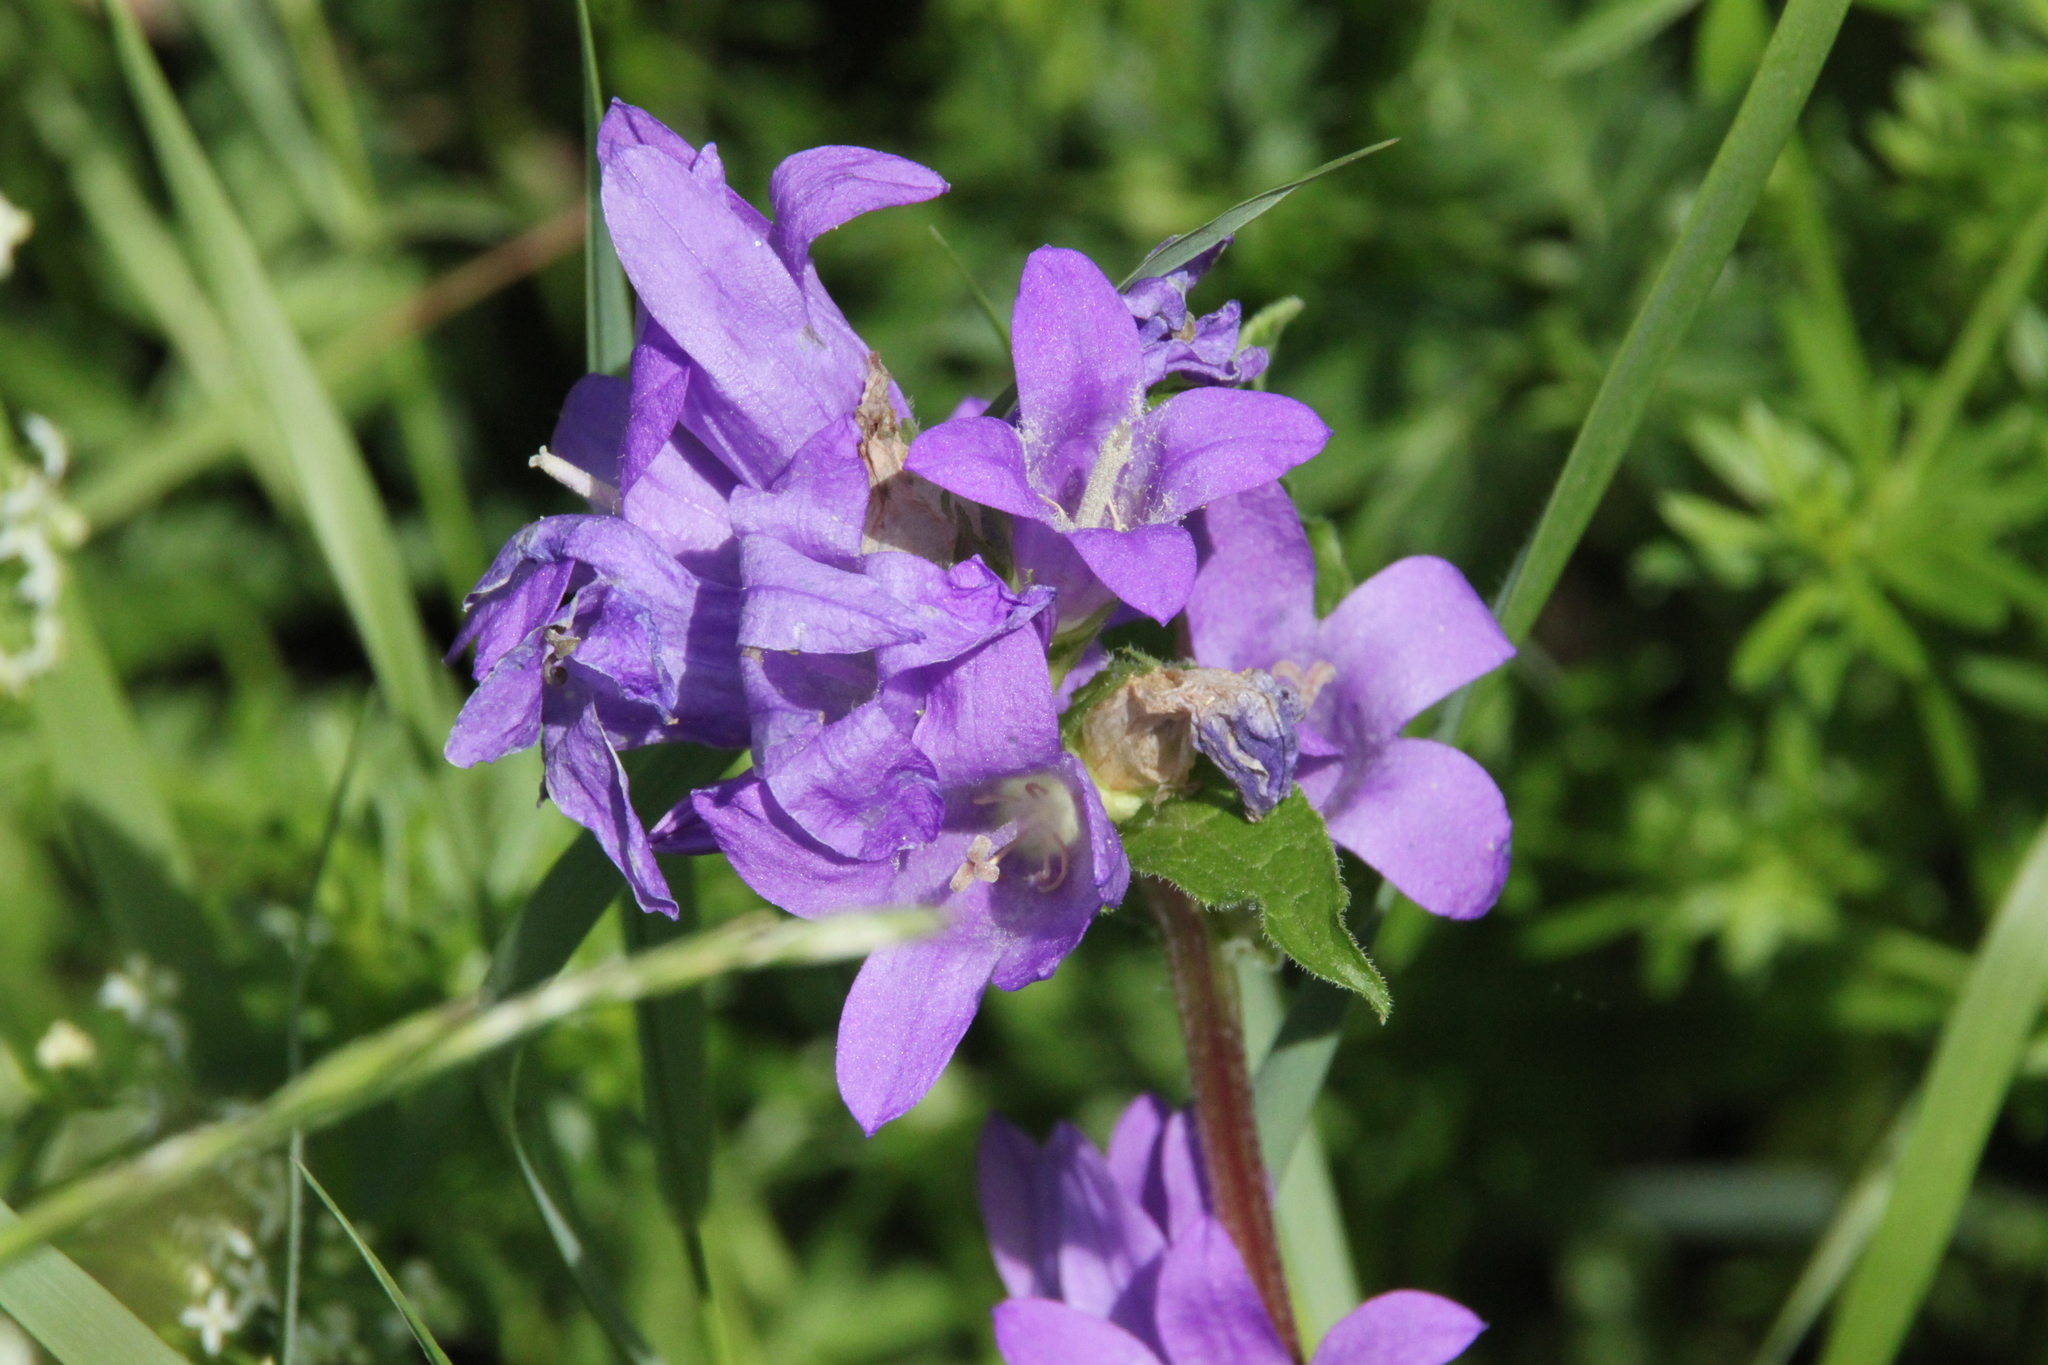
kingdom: Plantae
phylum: Tracheophyta
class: Magnoliopsida
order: Asterales
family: Campanulaceae
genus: Campanula
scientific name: Campanula glomerata
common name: Clustered bellflower
